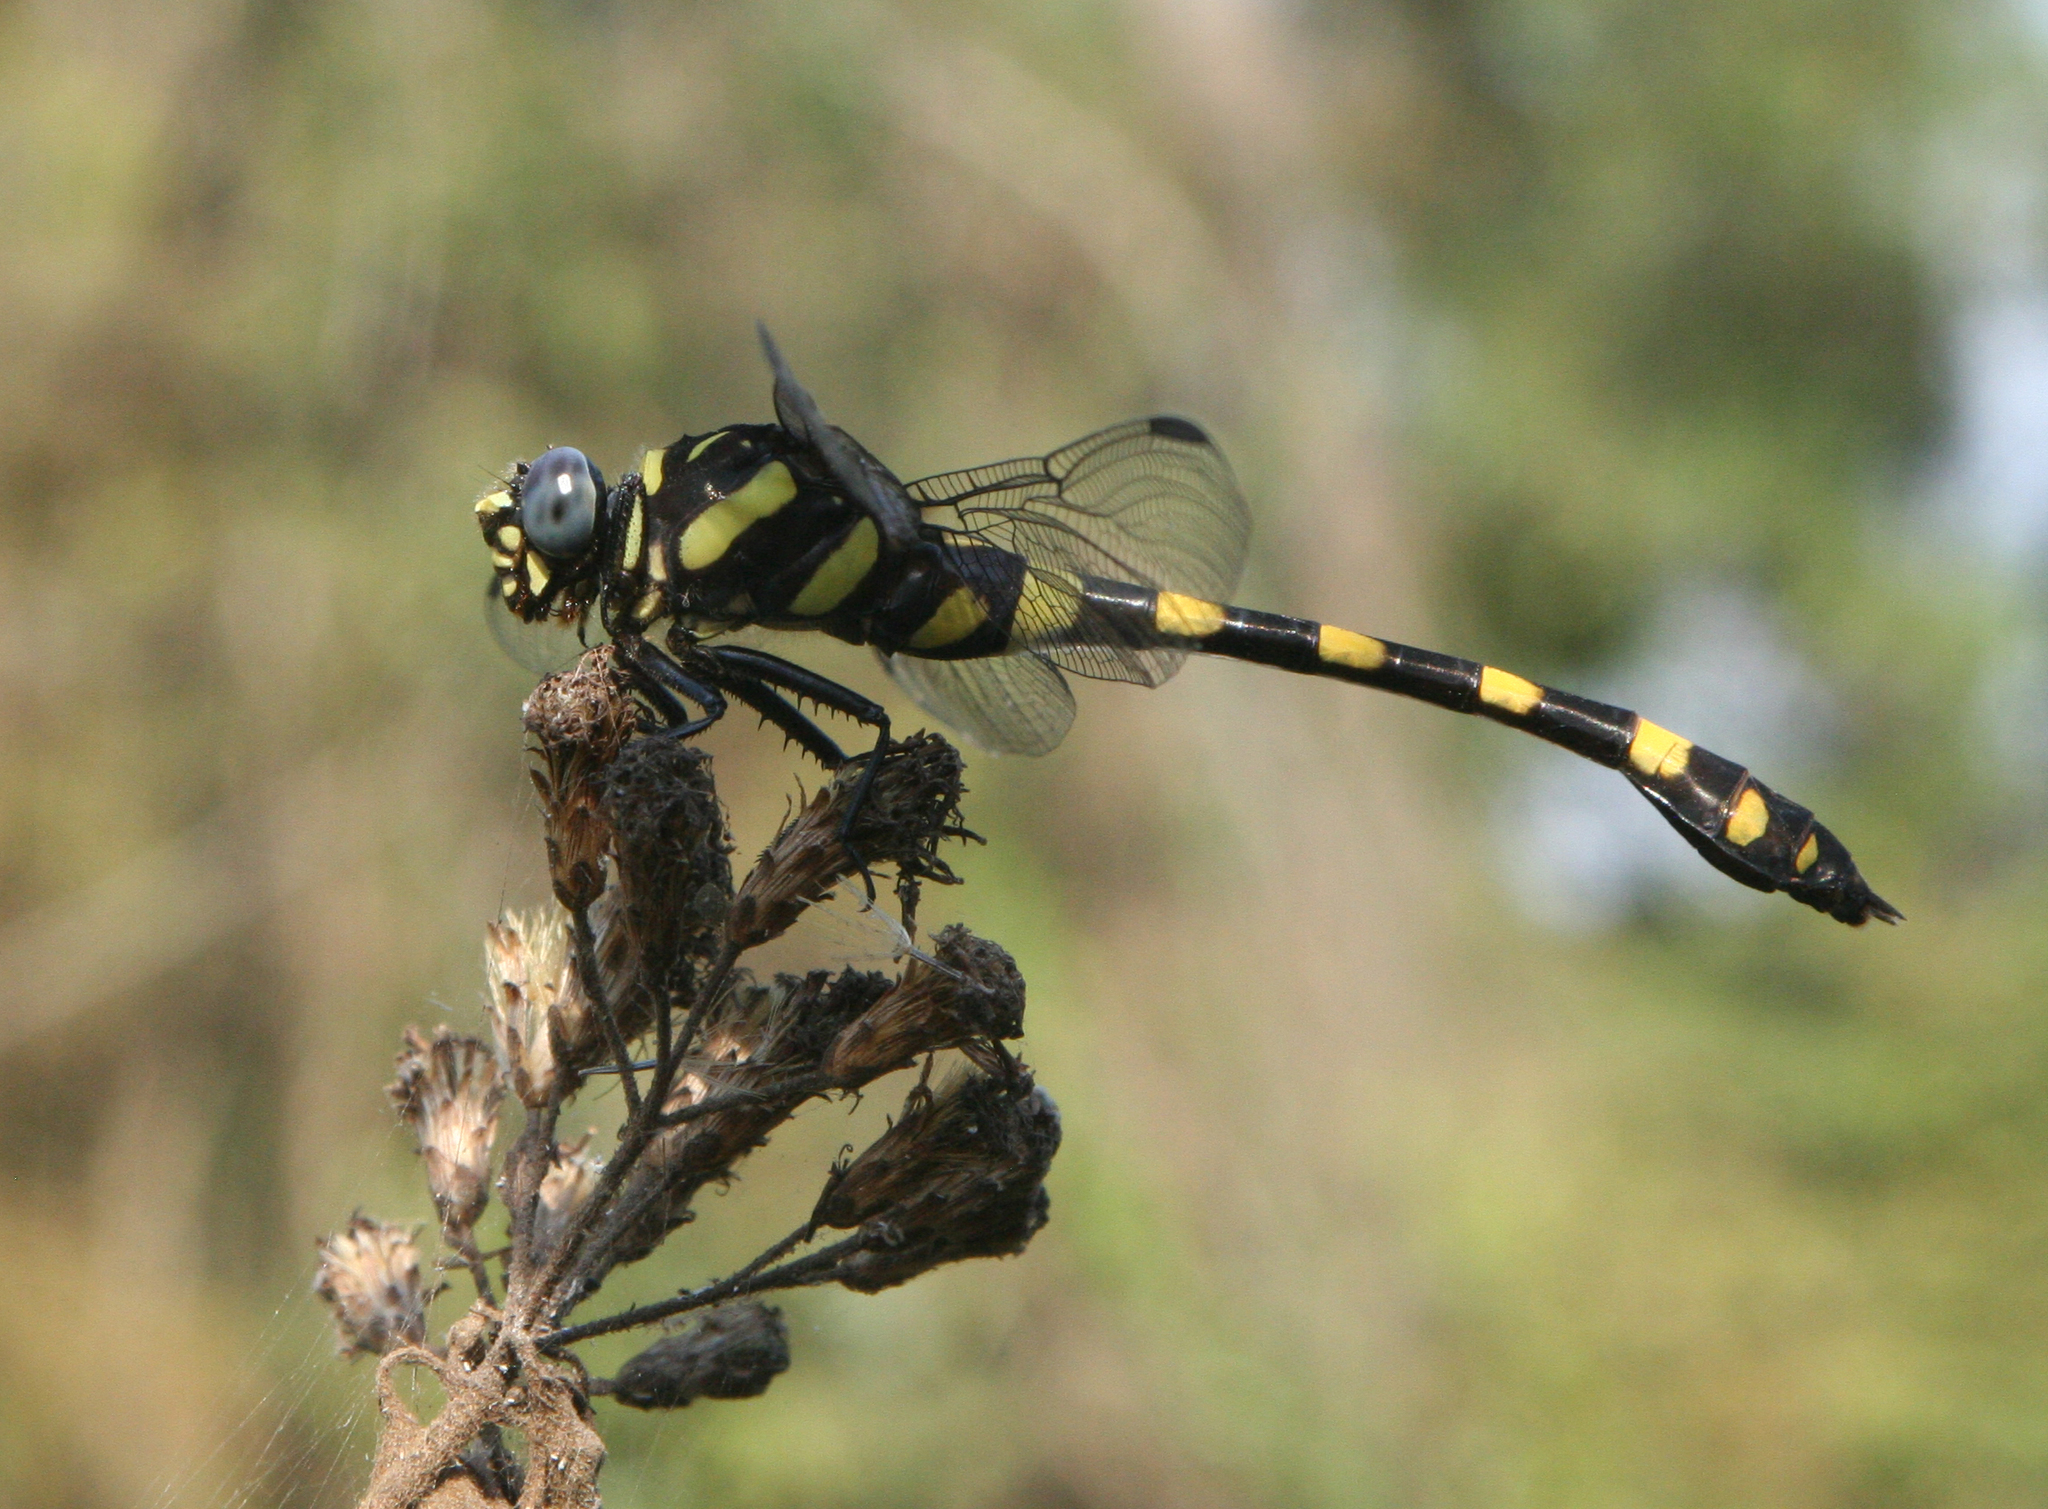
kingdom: Animalia
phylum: Arthropoda
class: Insecta
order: Odonata
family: Gomphidae
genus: Ictinogomphus
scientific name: Ictinogomphus decoratus
